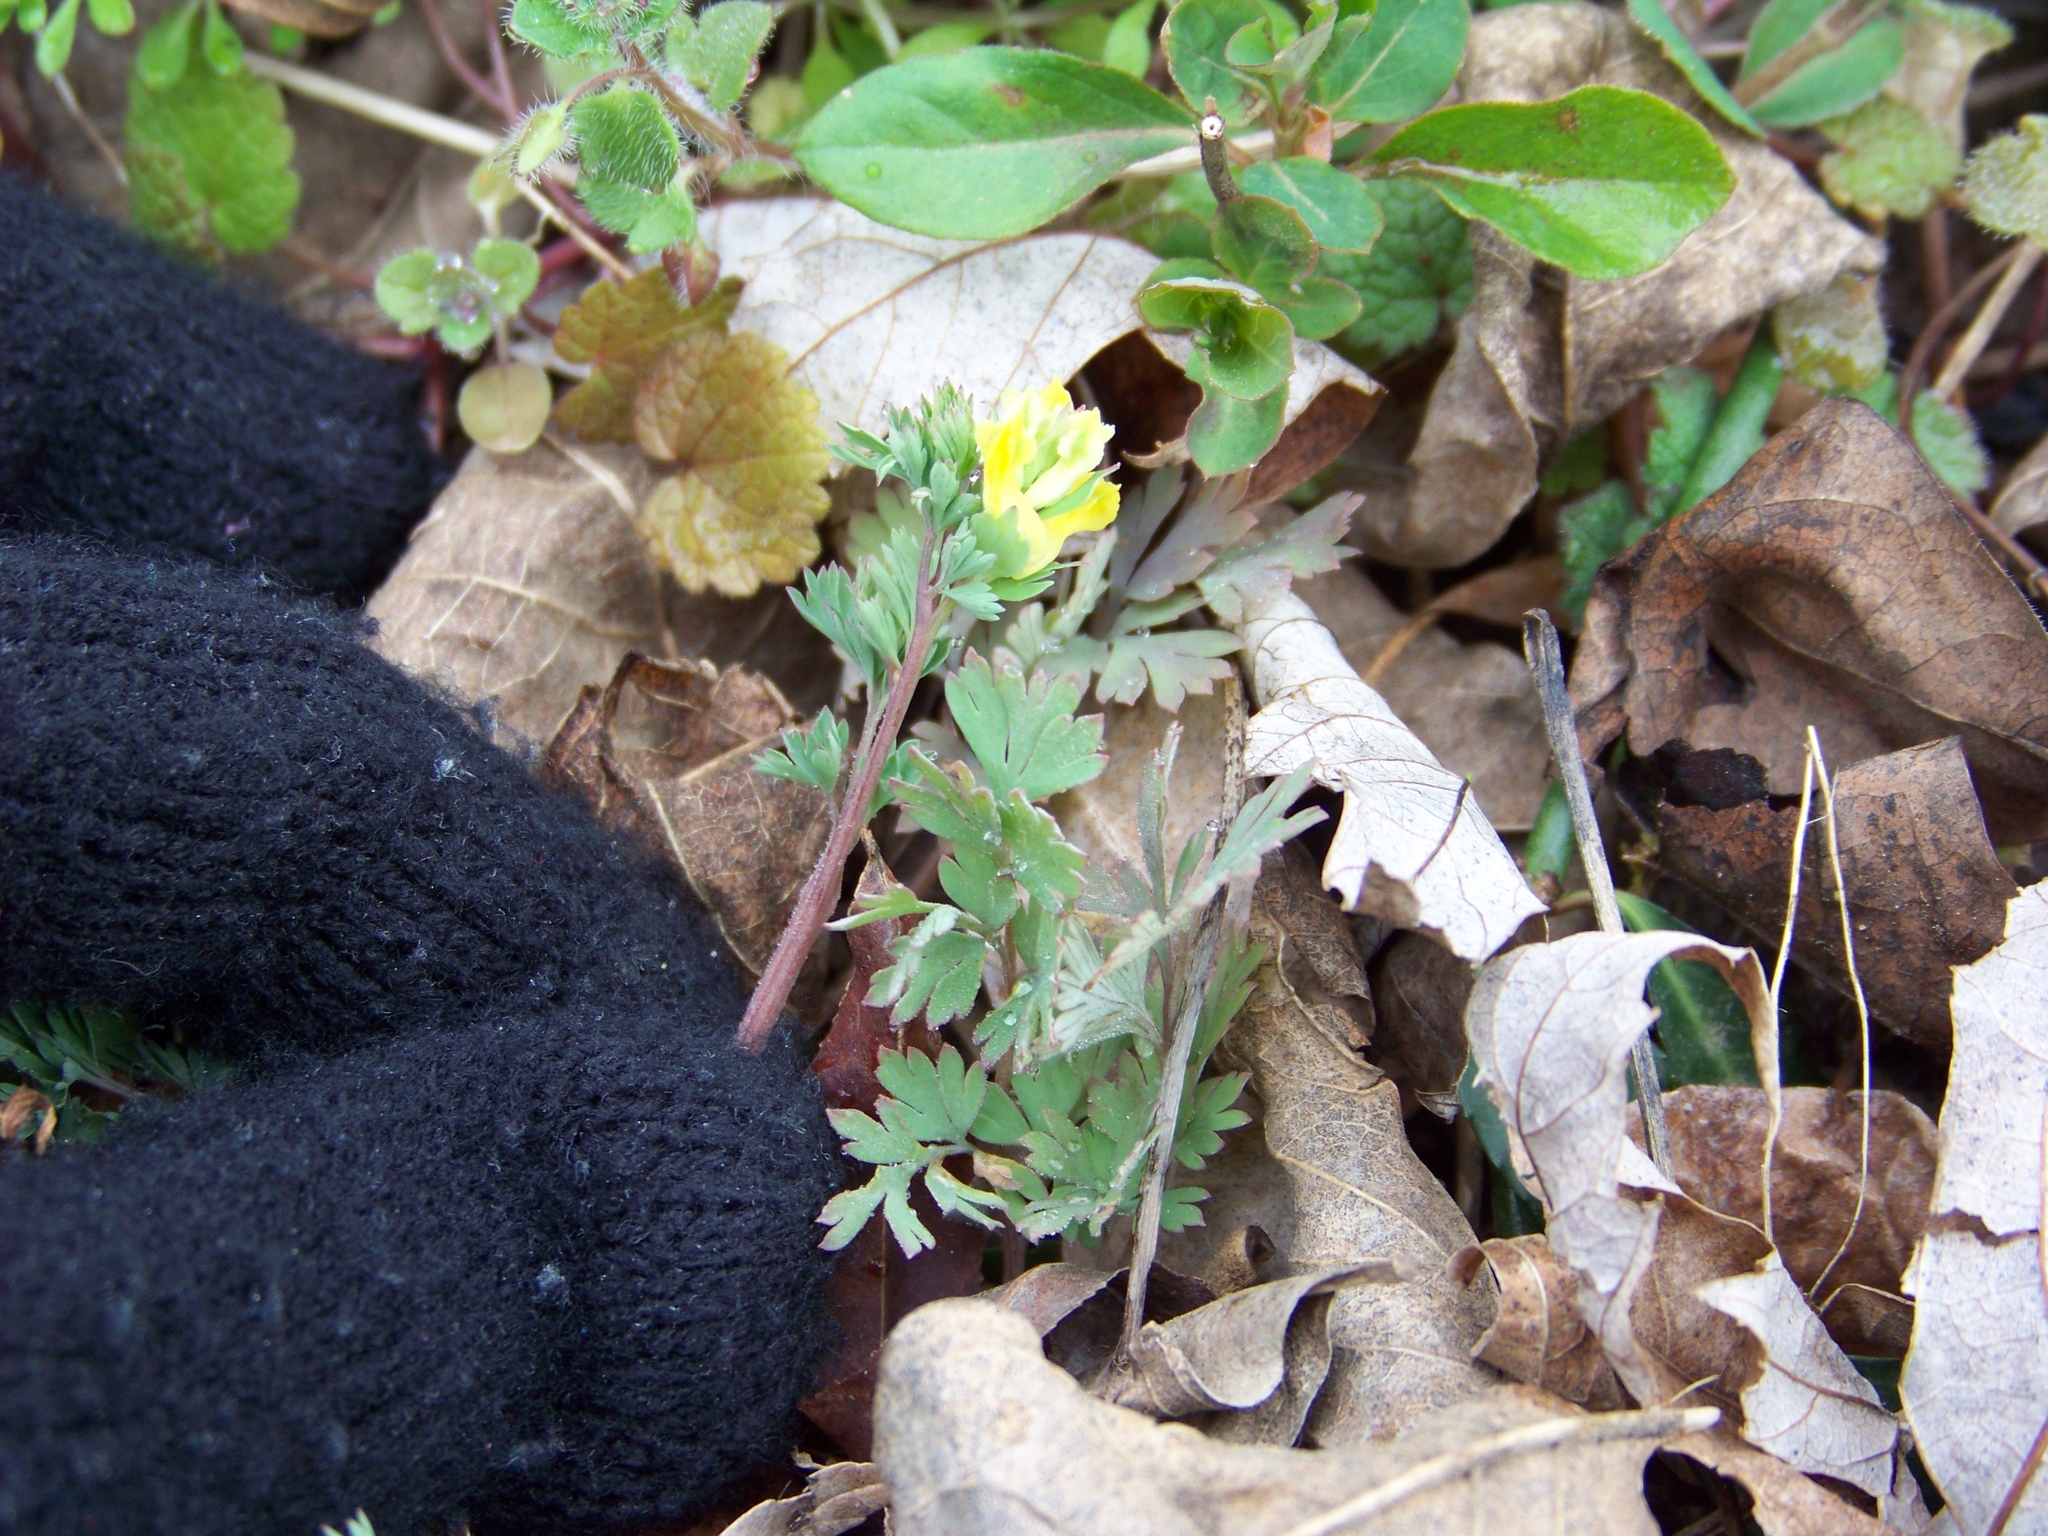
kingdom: Plantae
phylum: Tracheophyta
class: Magnoliopsida
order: Ranunculales
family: Papaveraceae
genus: Corydalis
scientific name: Corydalis flavula
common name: Yellow corydalis
